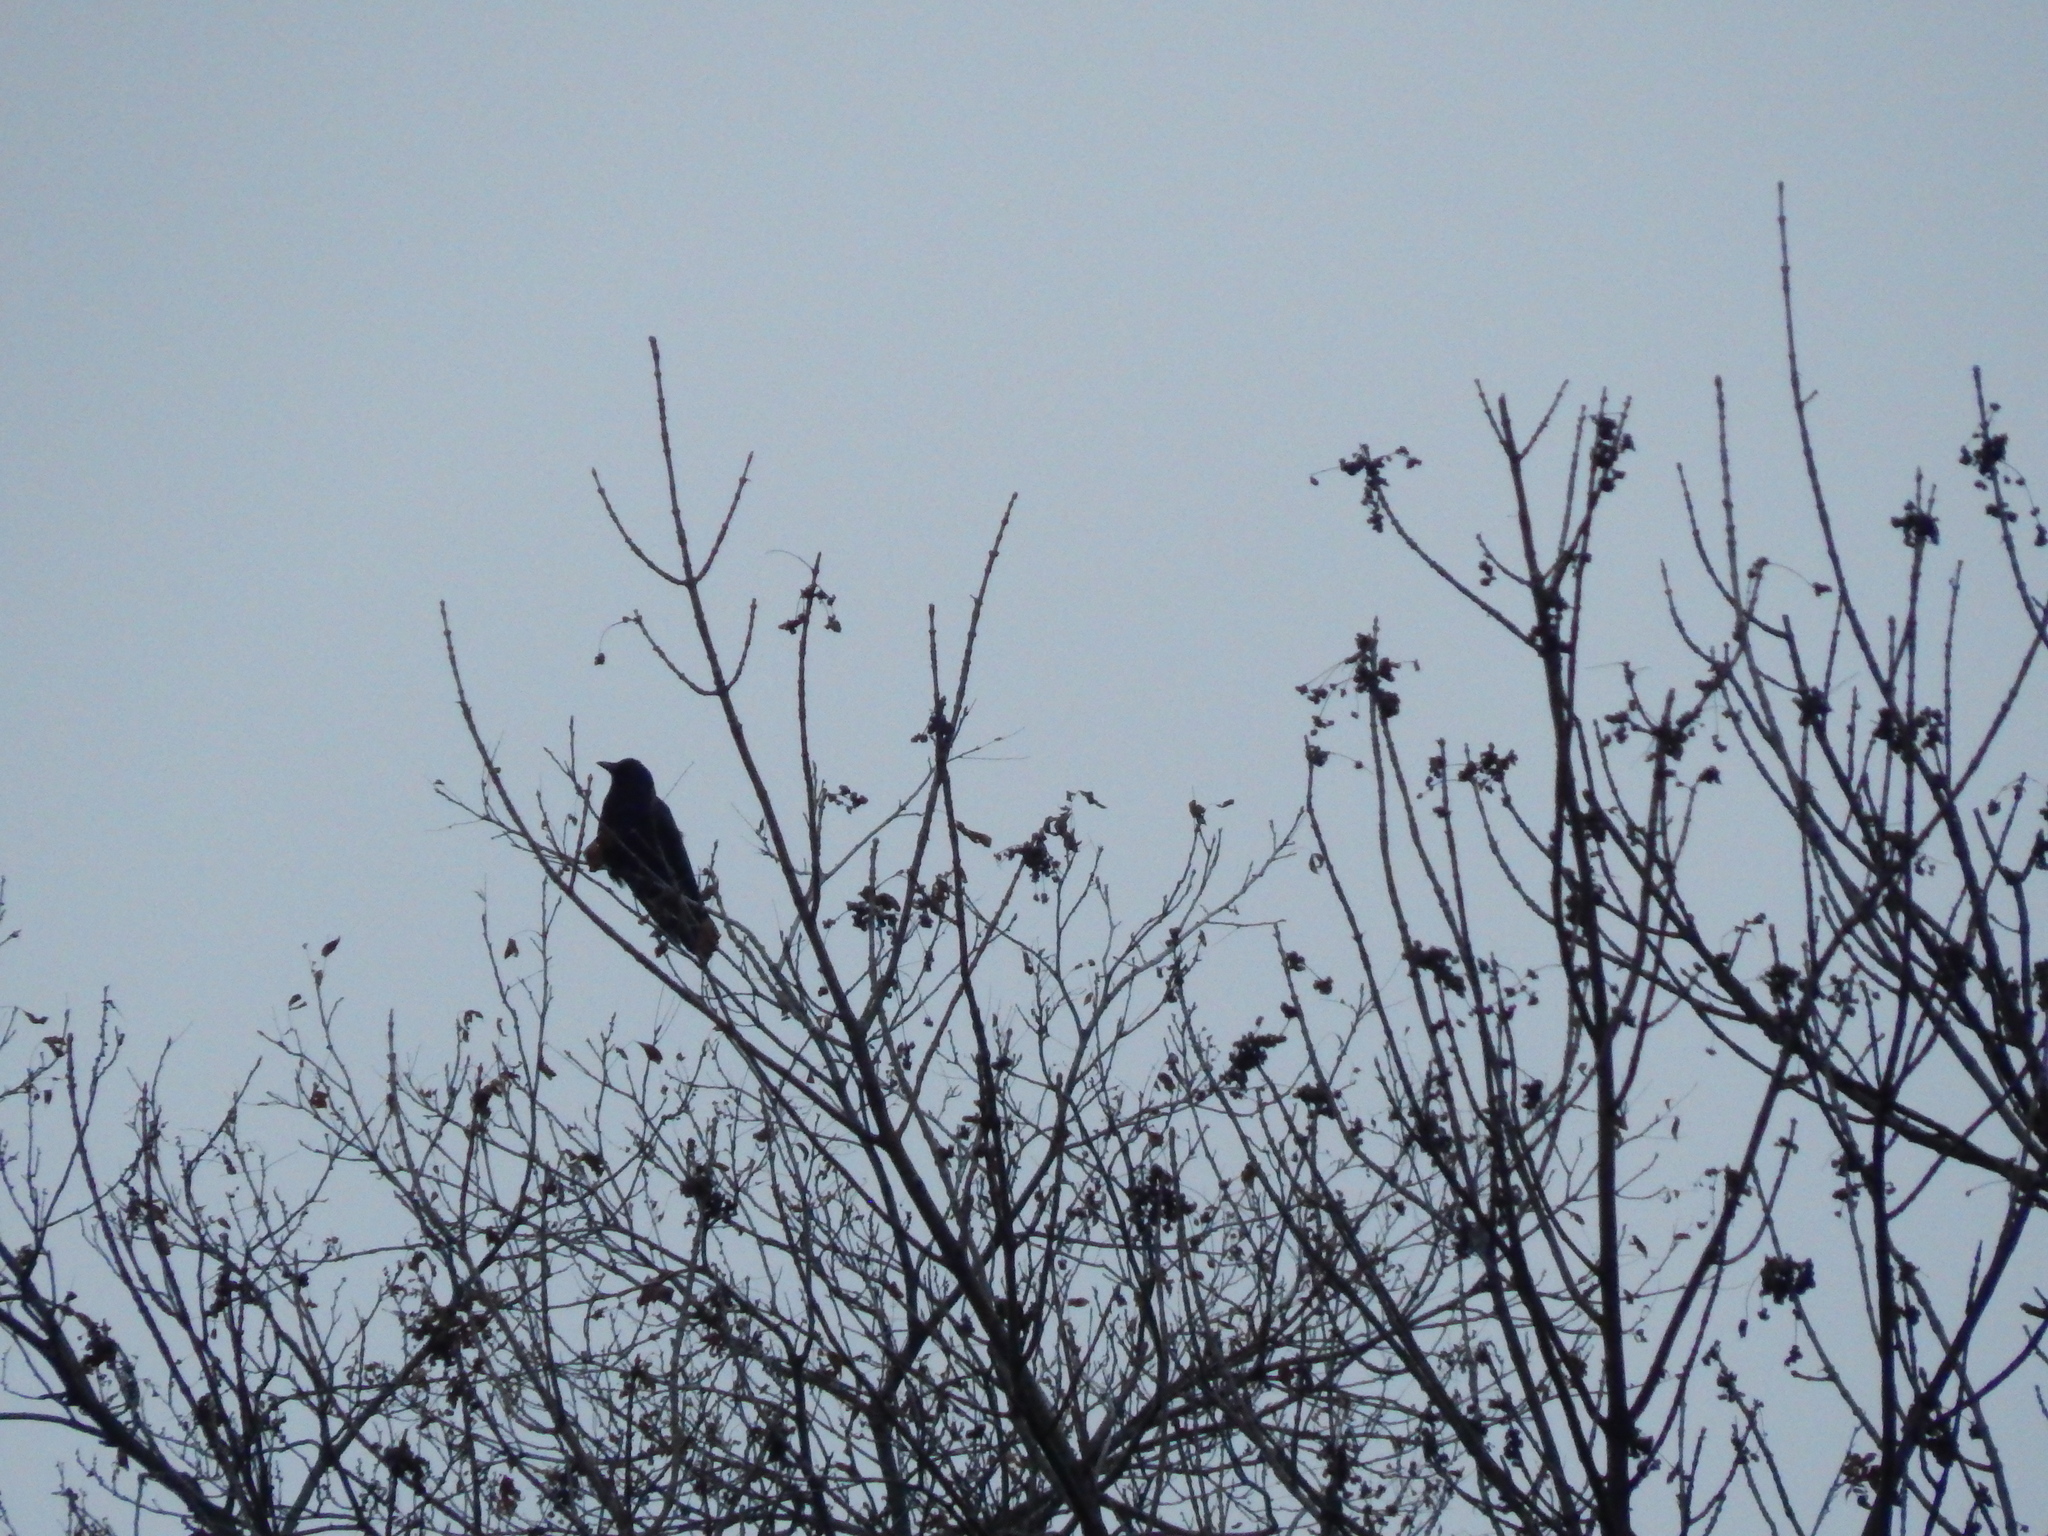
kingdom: Animalia
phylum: Chordata
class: Aves
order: Passeriformes
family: Corvidae
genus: Corvus
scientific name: Corvus brachyrhynchos
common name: American crow
